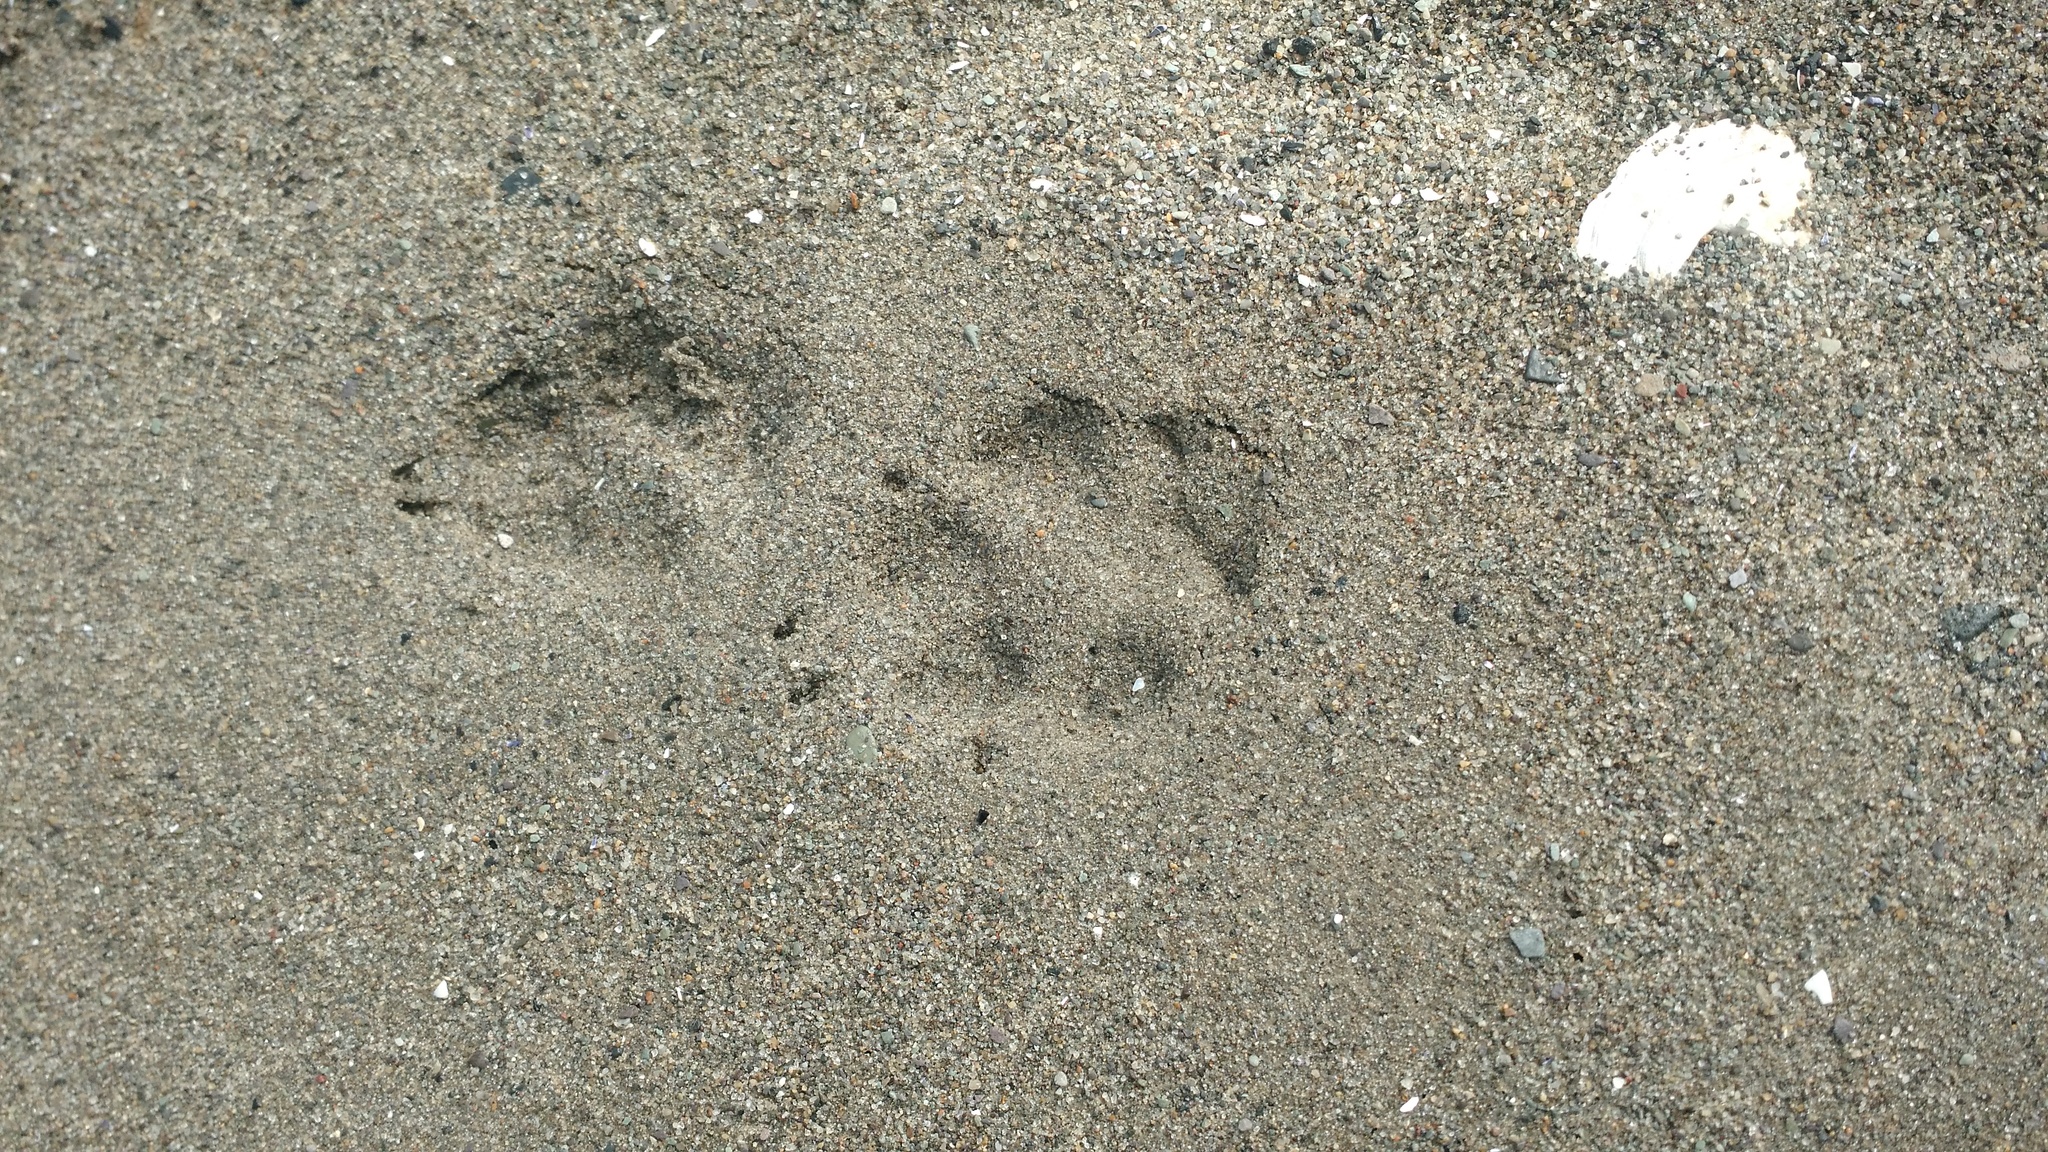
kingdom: Animalia
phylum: Chordata
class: Mammalia
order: Carnivora
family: Canidae
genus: Canis
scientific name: Canis latrans
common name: Coyote
